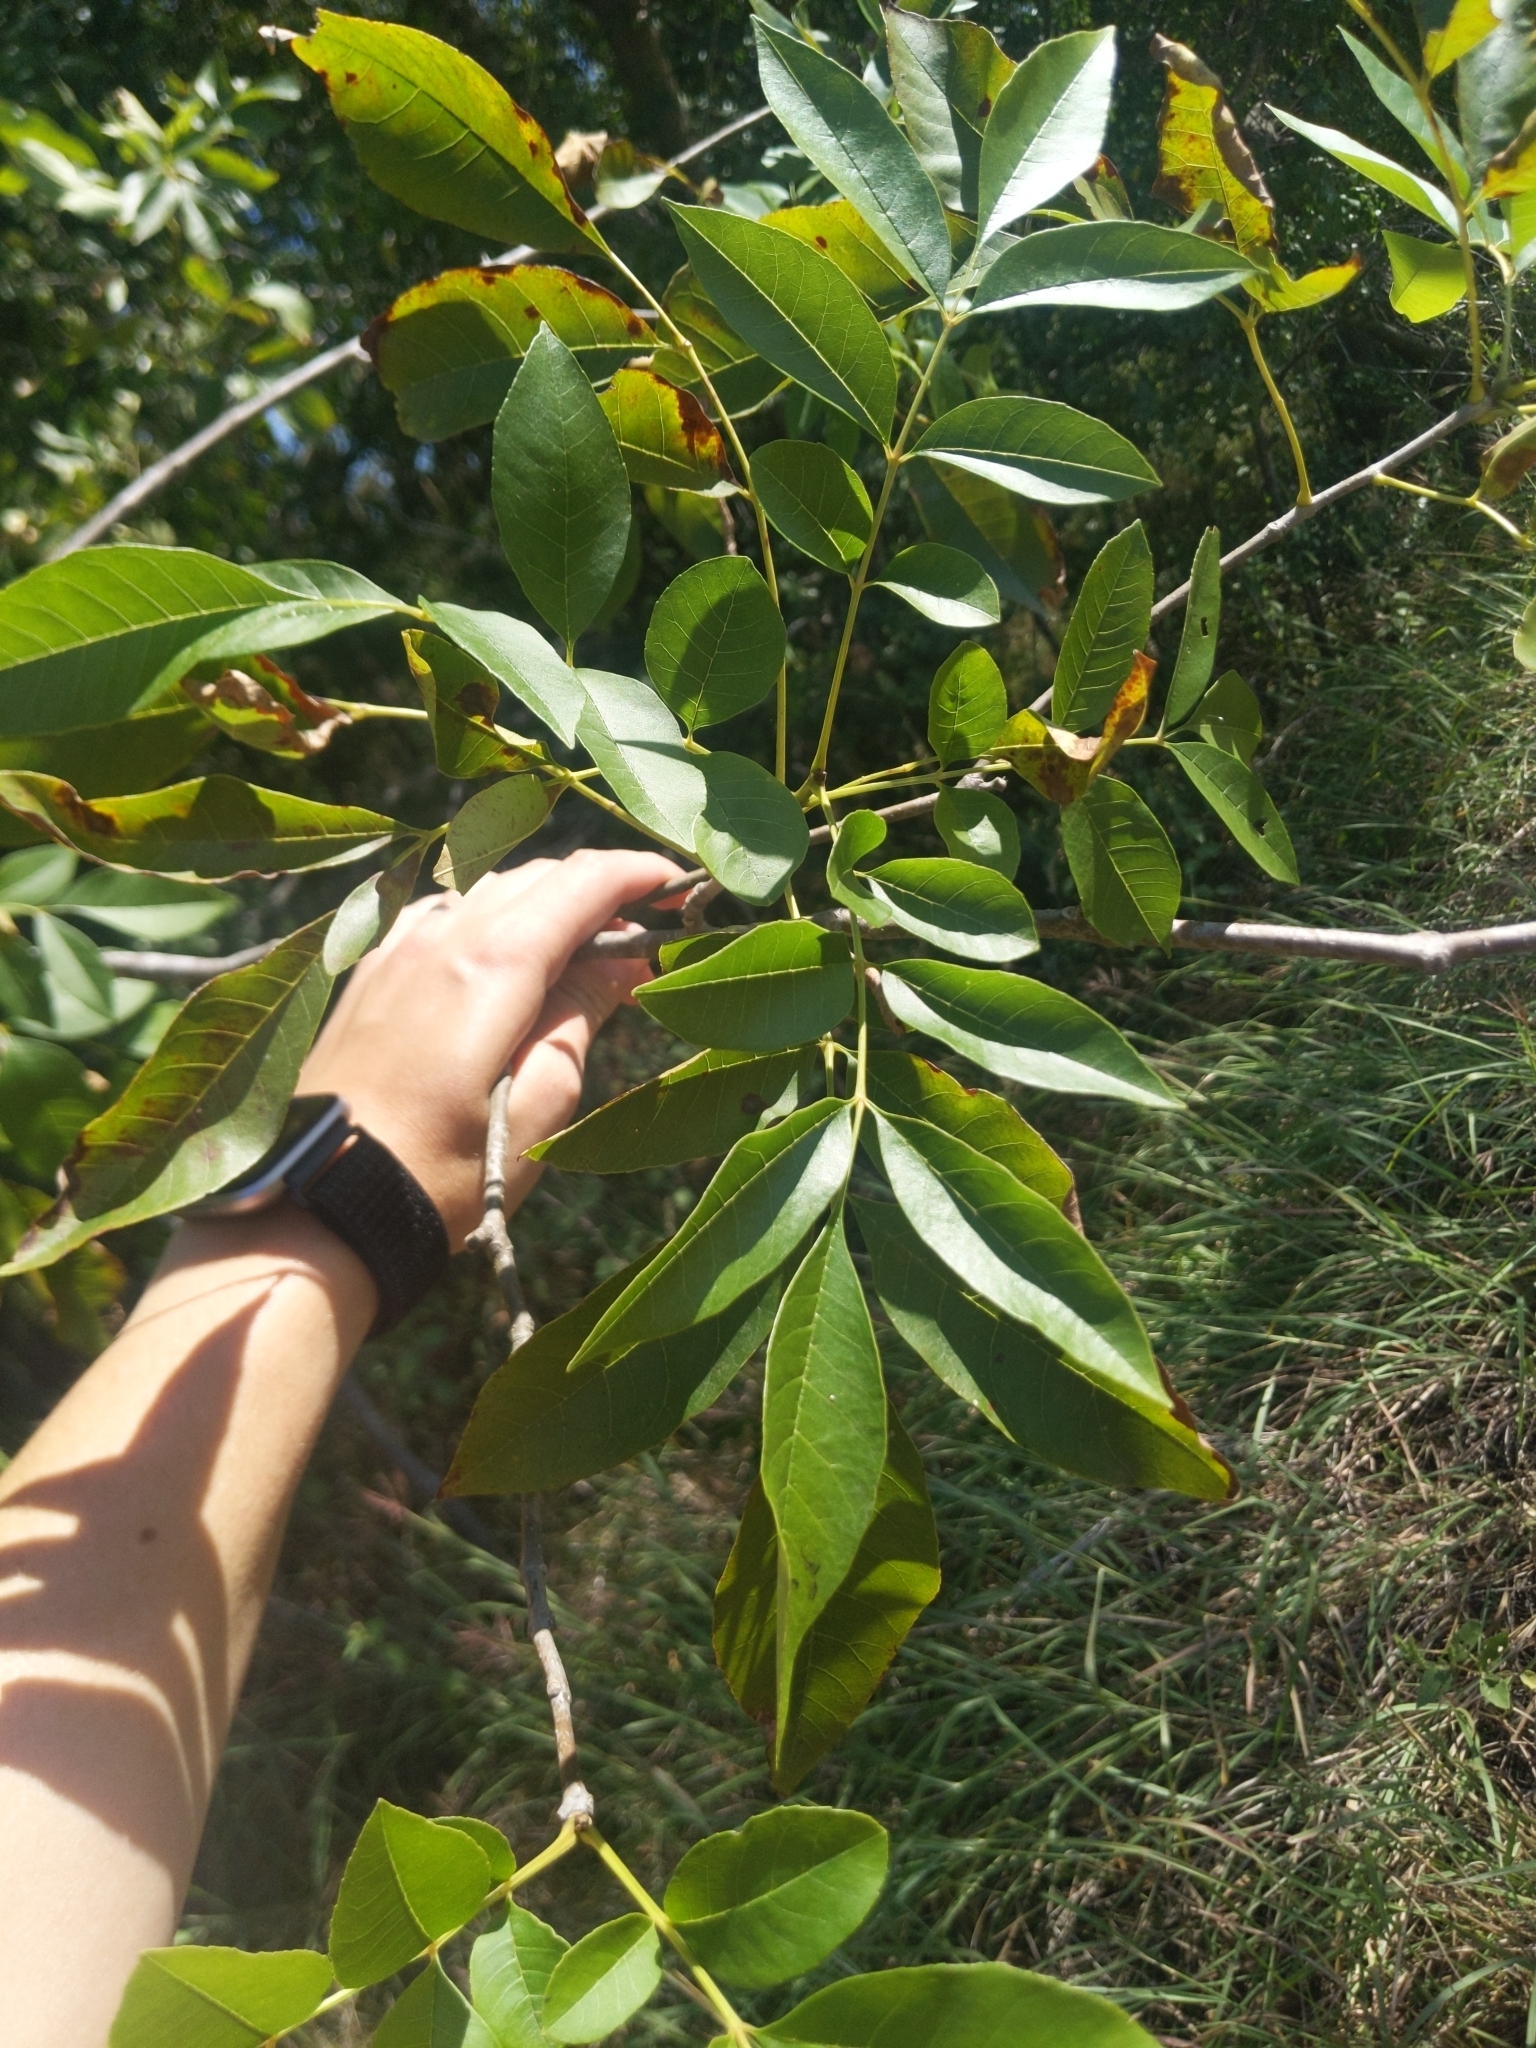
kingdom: Plantae
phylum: Tracheophyta
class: Magnoliopsida
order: Lamiales
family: Oleaceae
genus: Fraxinus
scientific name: Fraxinus pennsylvanica
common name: Green ash
